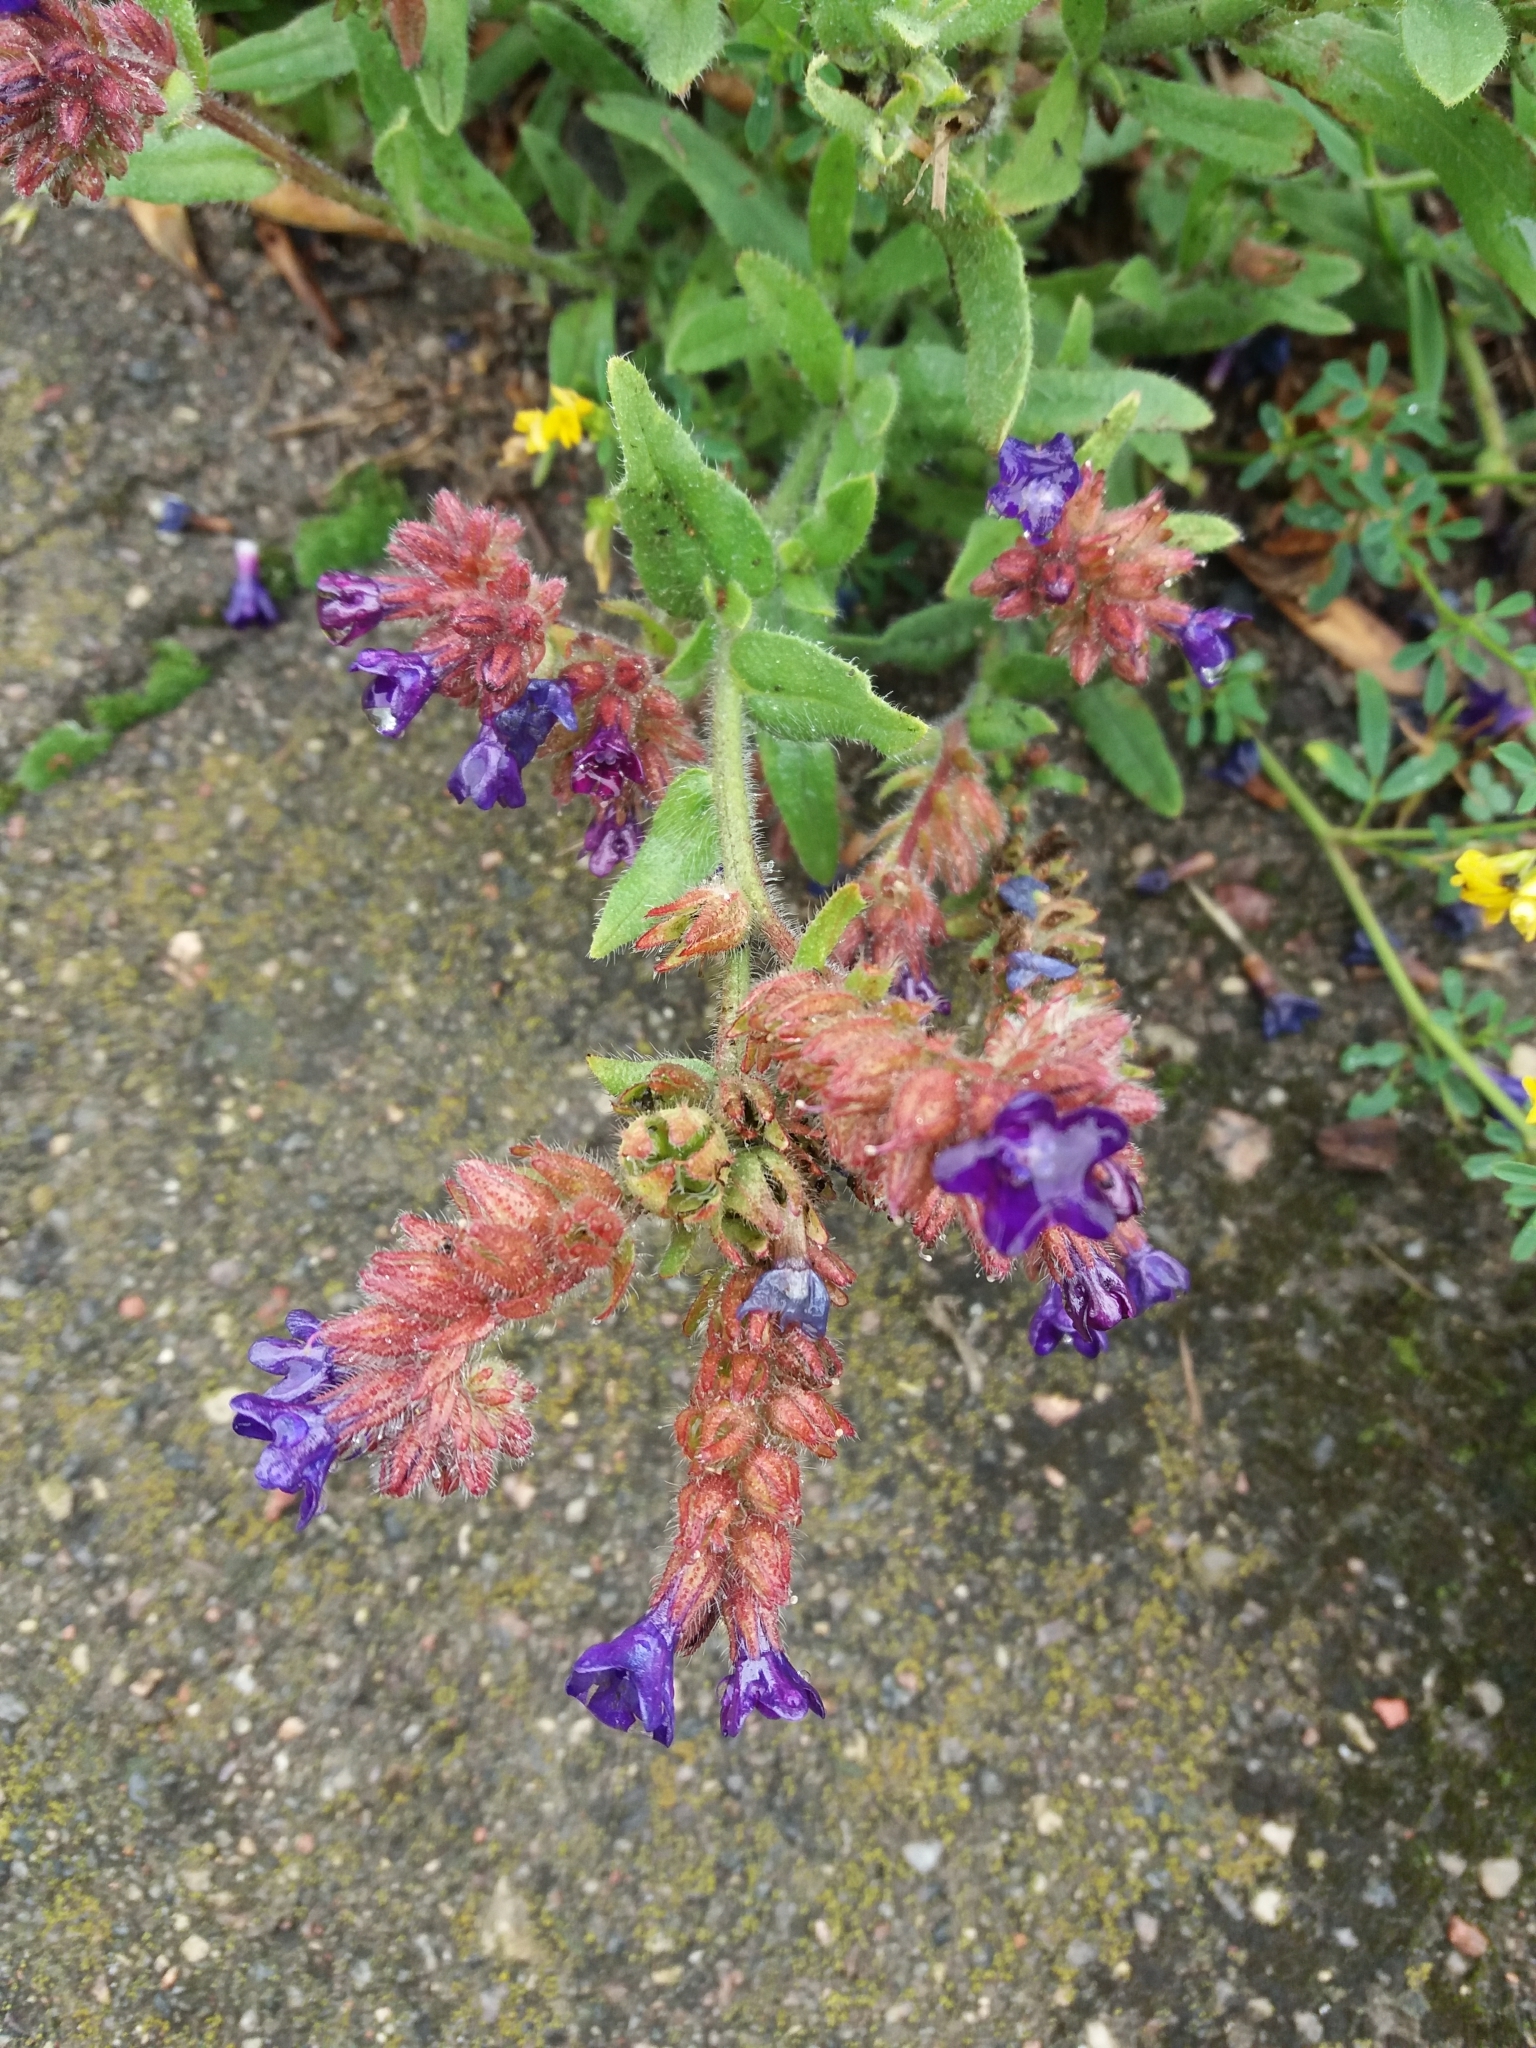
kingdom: Plantae
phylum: Tracheophyta
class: Magnoliopsida
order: Boraginales
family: Boraginaceae
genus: Anchusa
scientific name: Anchusa officinalis
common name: Alkanet
